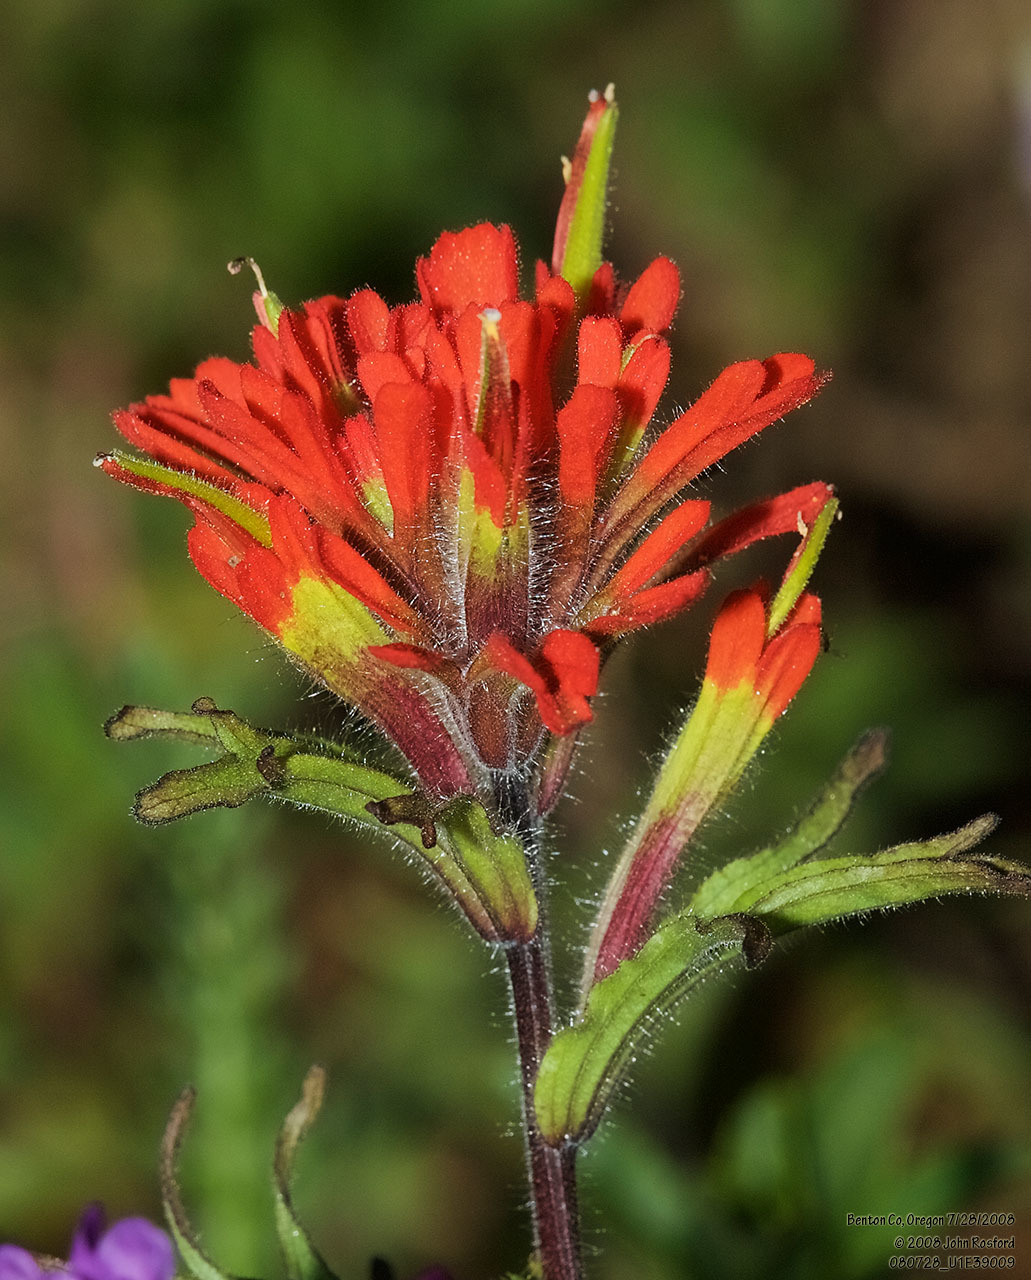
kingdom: Plantae
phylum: Tracheophyta
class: Magnoliopsida
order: Lamiales
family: Orobanchaceae
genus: Castilleja
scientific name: Castilleja hispida
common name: Bristly paintbrush
